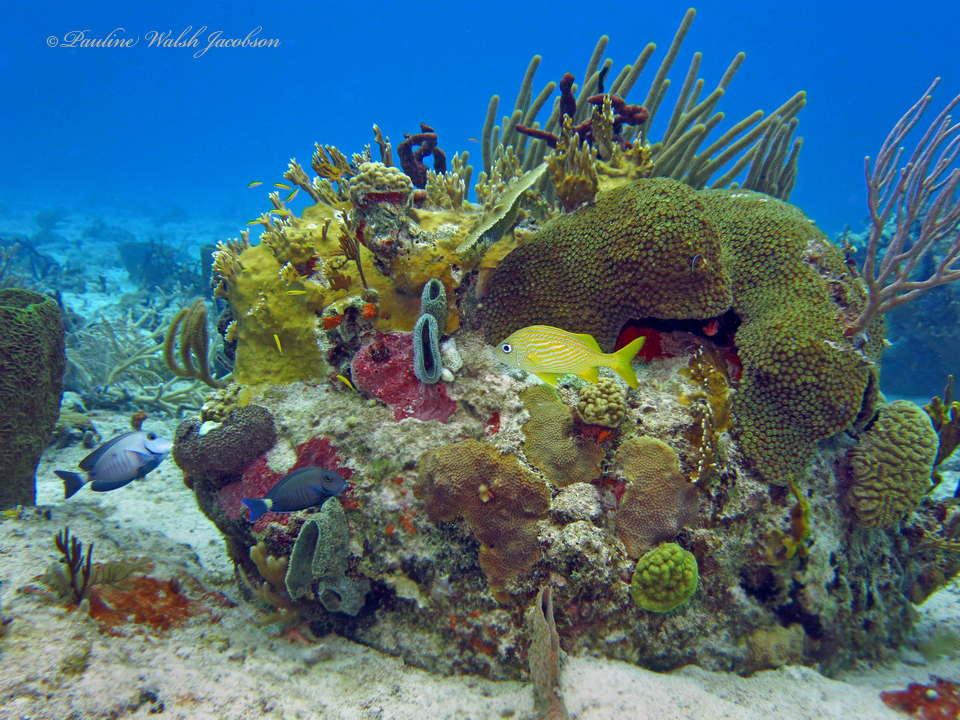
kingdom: Animalia
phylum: Chordata
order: Perciformes
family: Haemulidae
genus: Haemulon
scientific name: Haemulon flavolineatum
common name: French grunt
